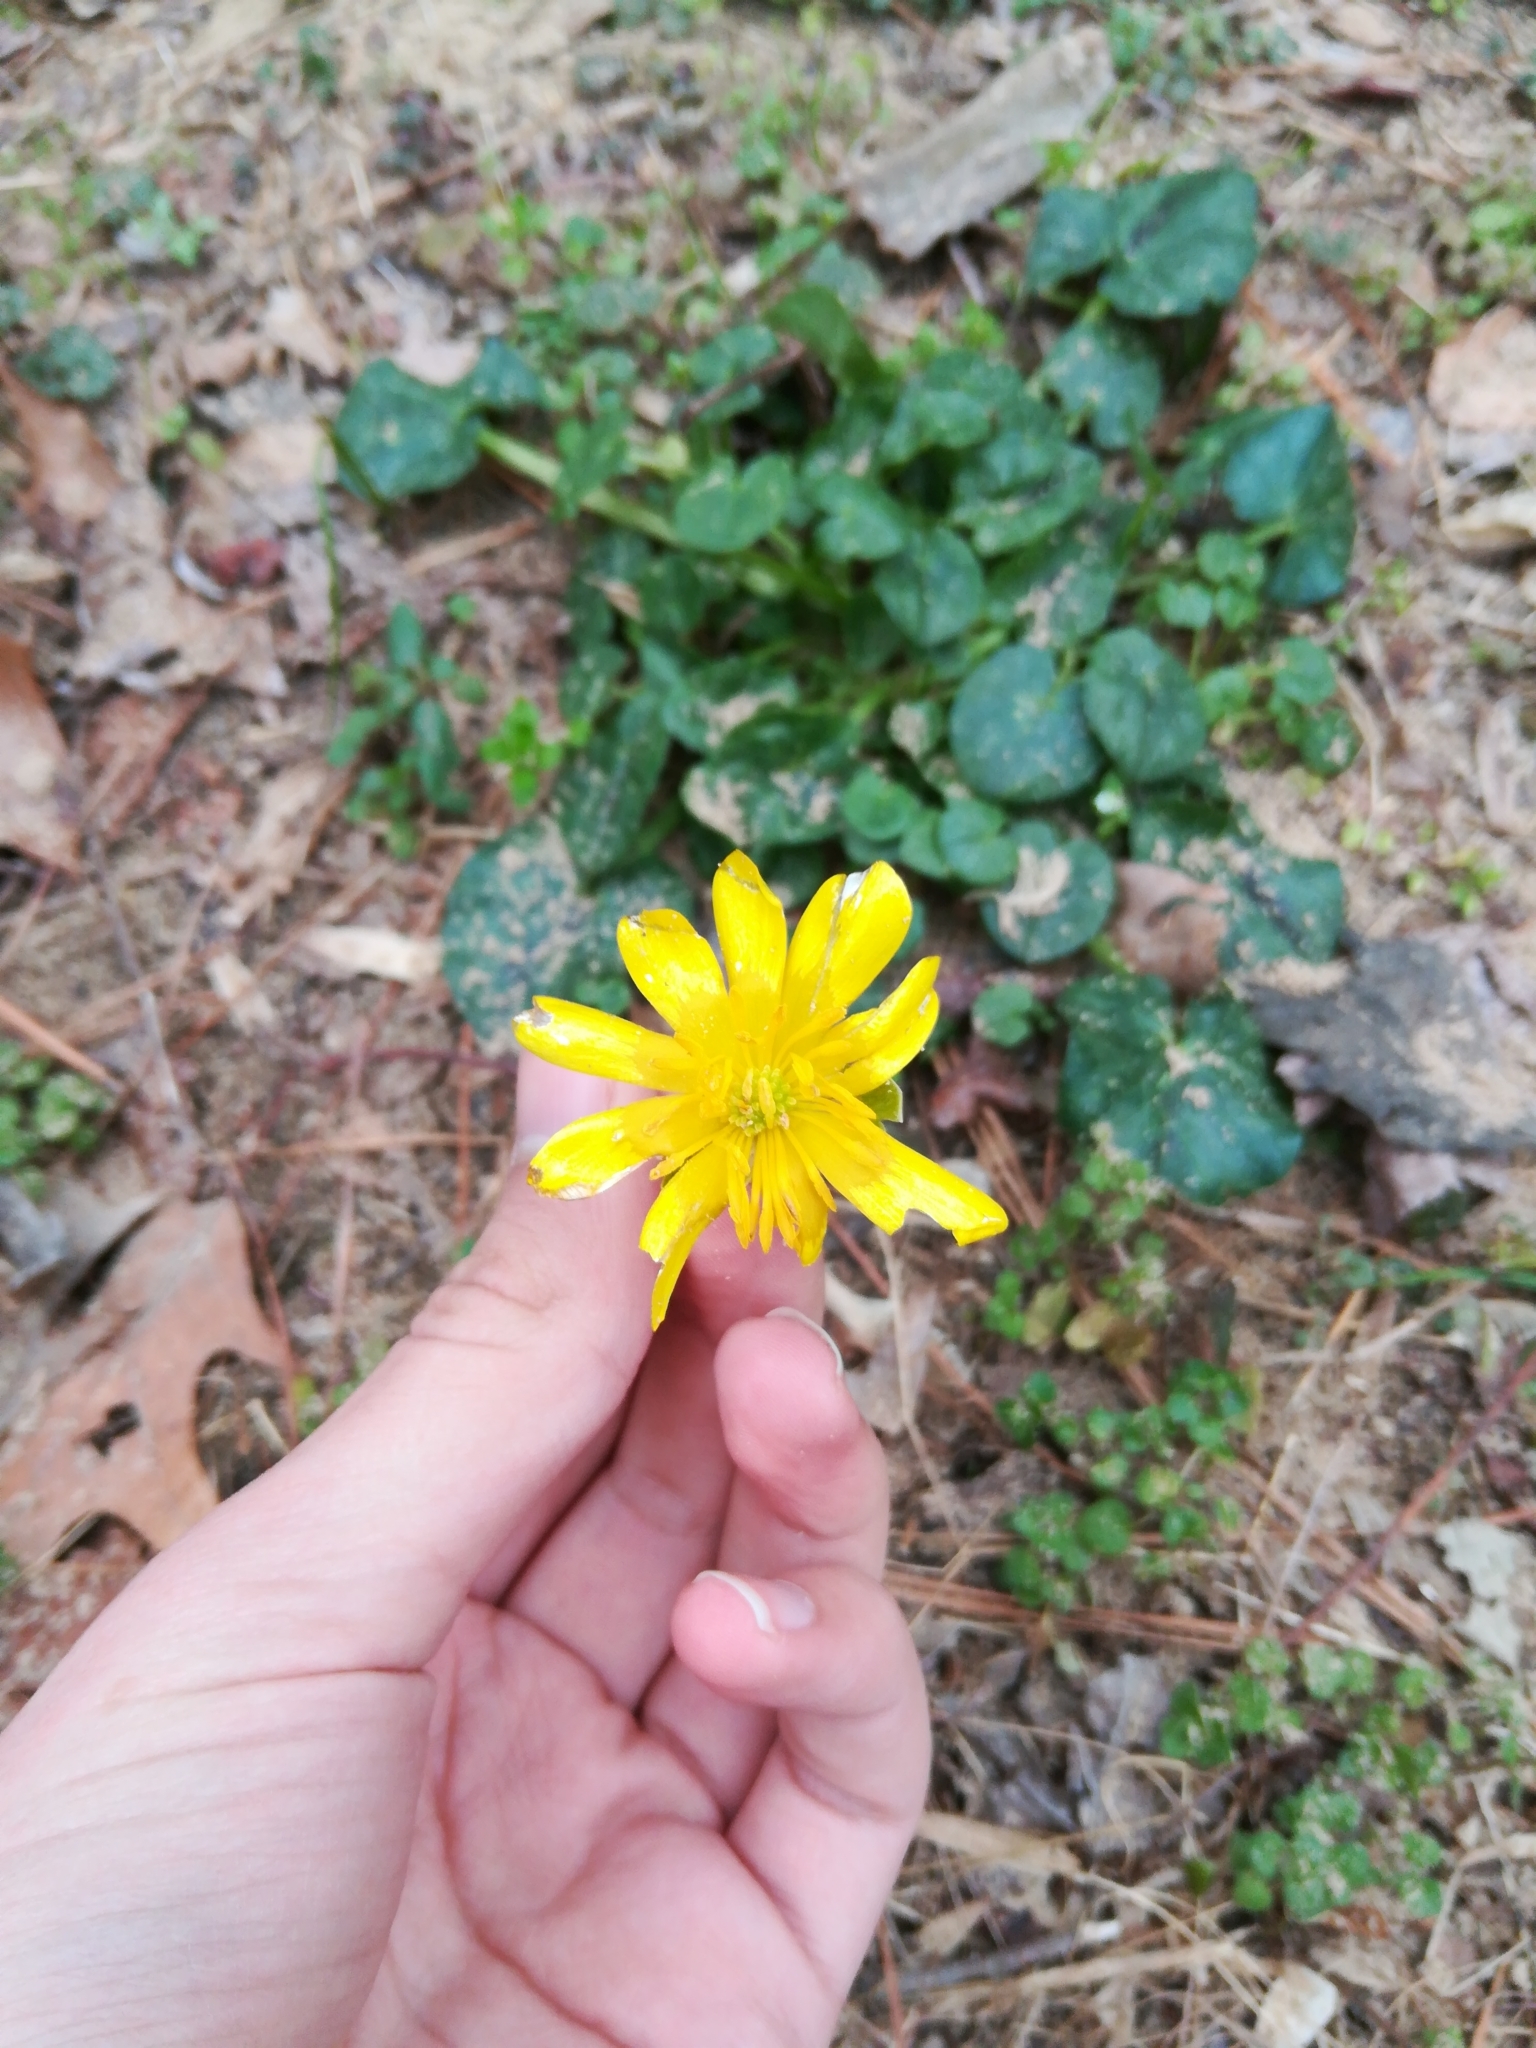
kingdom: Plantae
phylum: Tracheophyta
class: Magnoliopsida
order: Ranunculales
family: Ranunculaceae
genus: Ficaria
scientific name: Ficaria verna
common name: Lesser celandine
